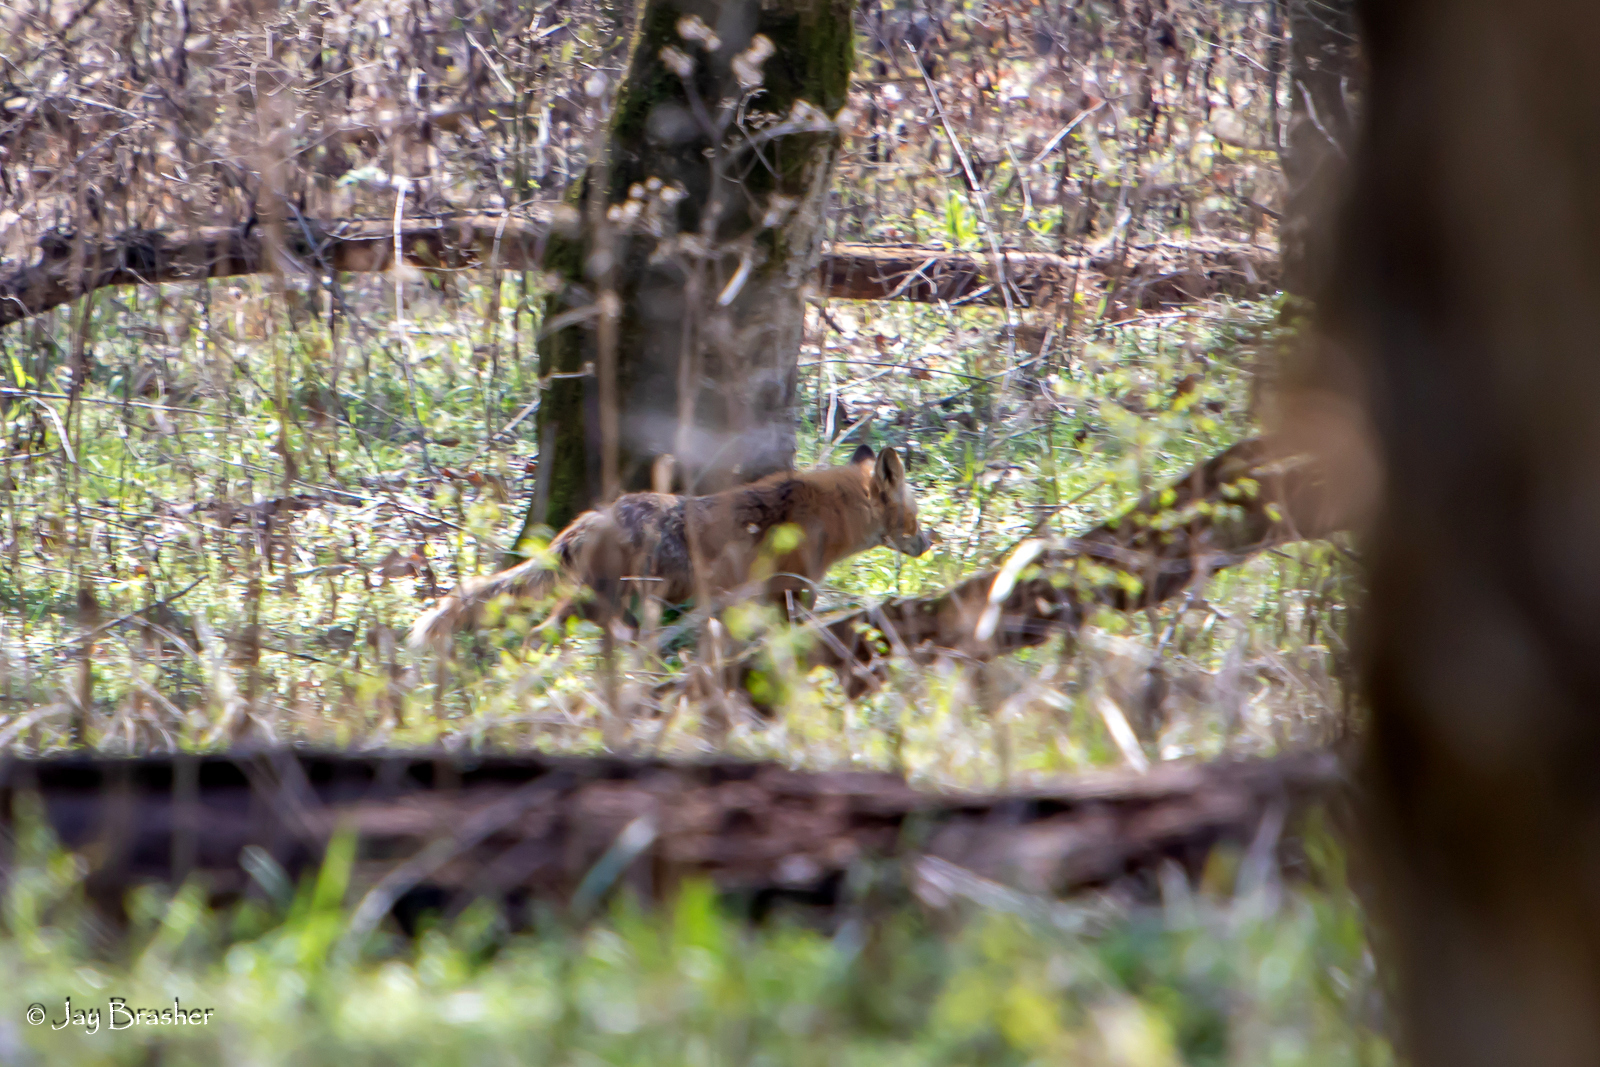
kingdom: Animalia
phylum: Chordata
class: Mammalia
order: Carnivora
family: Canidae
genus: Vulpes
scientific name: Vulpes vulpes
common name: Red fox
